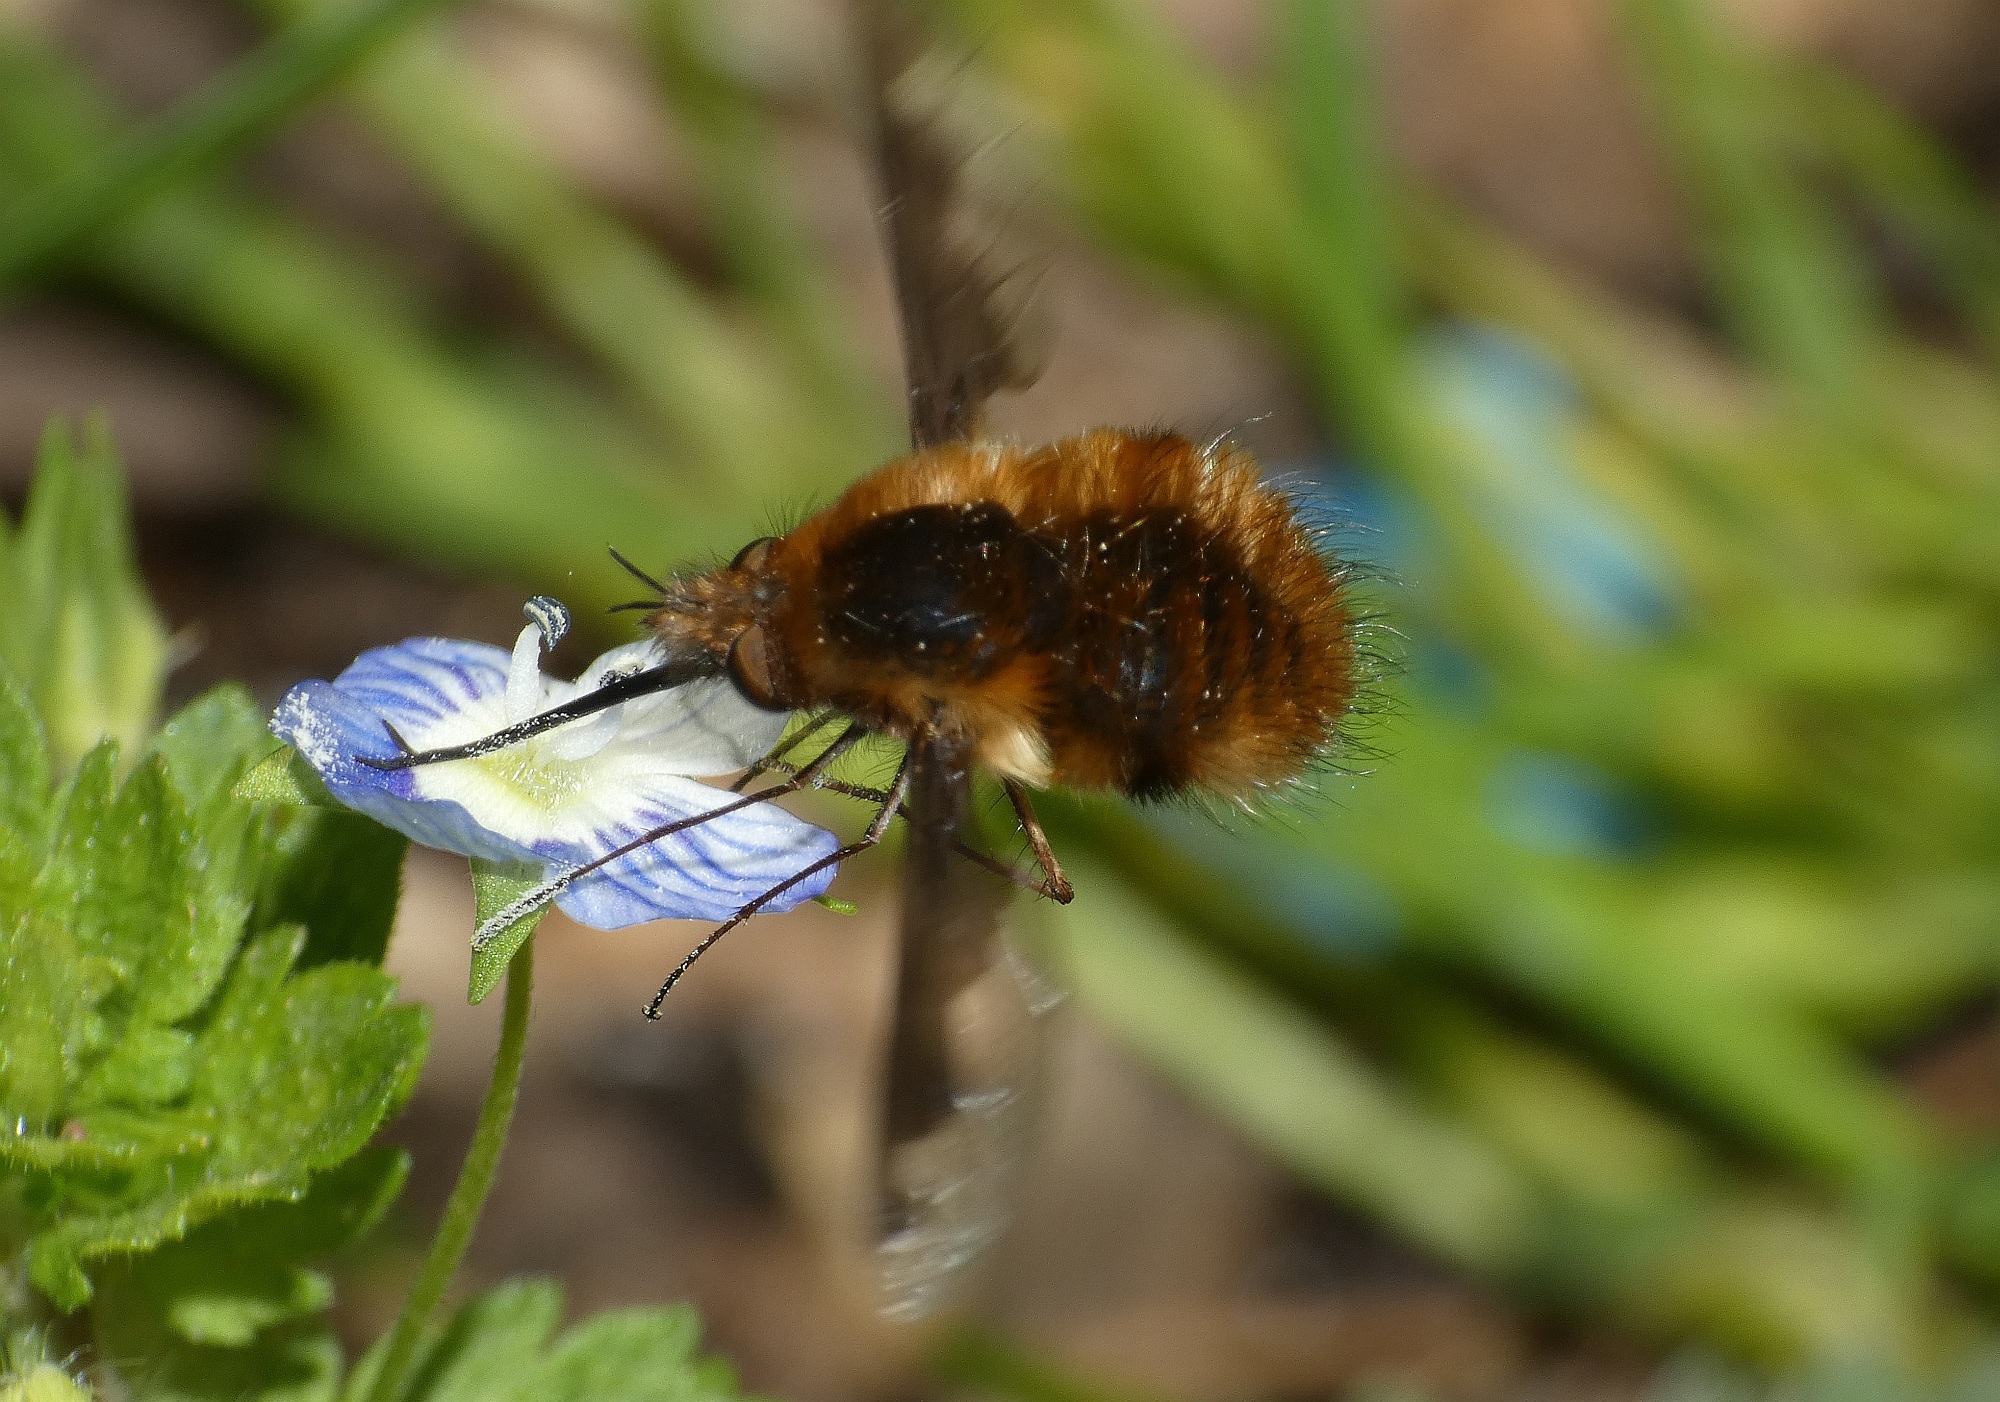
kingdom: Animalia
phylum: Arthropoda
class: Insecta
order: Diptera
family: Bombyliidae
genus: Bombylius
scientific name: Bombylius major
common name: Bee fly
